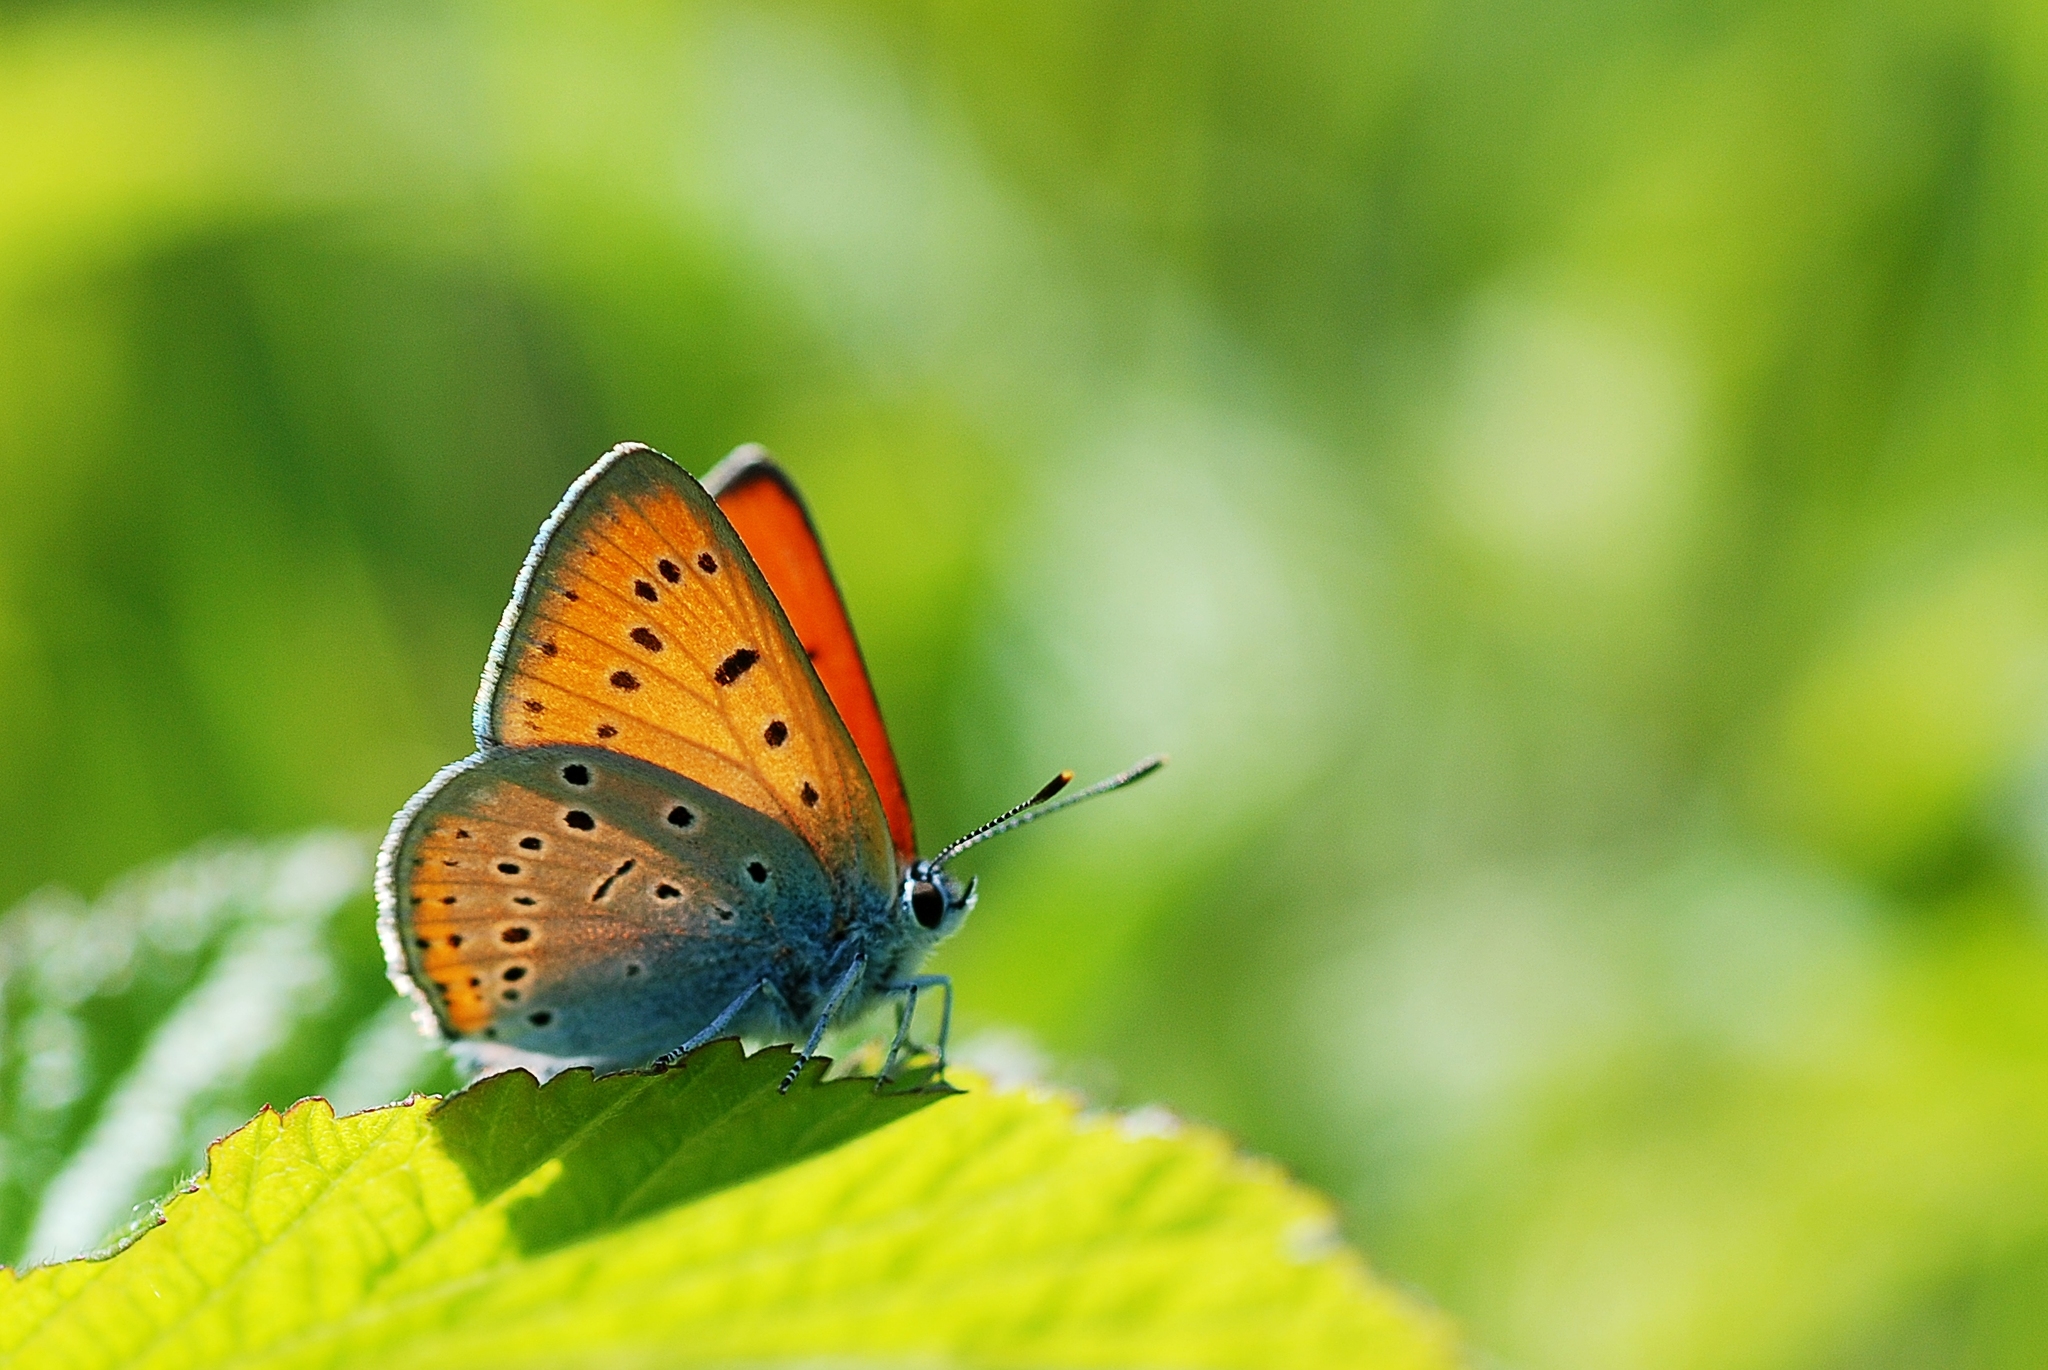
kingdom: Animalia
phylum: Arthropoda
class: Insecta
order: Lepidoptera
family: Lycaenidae
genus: Lycaena
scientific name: Lycaena dispar
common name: Large copper
